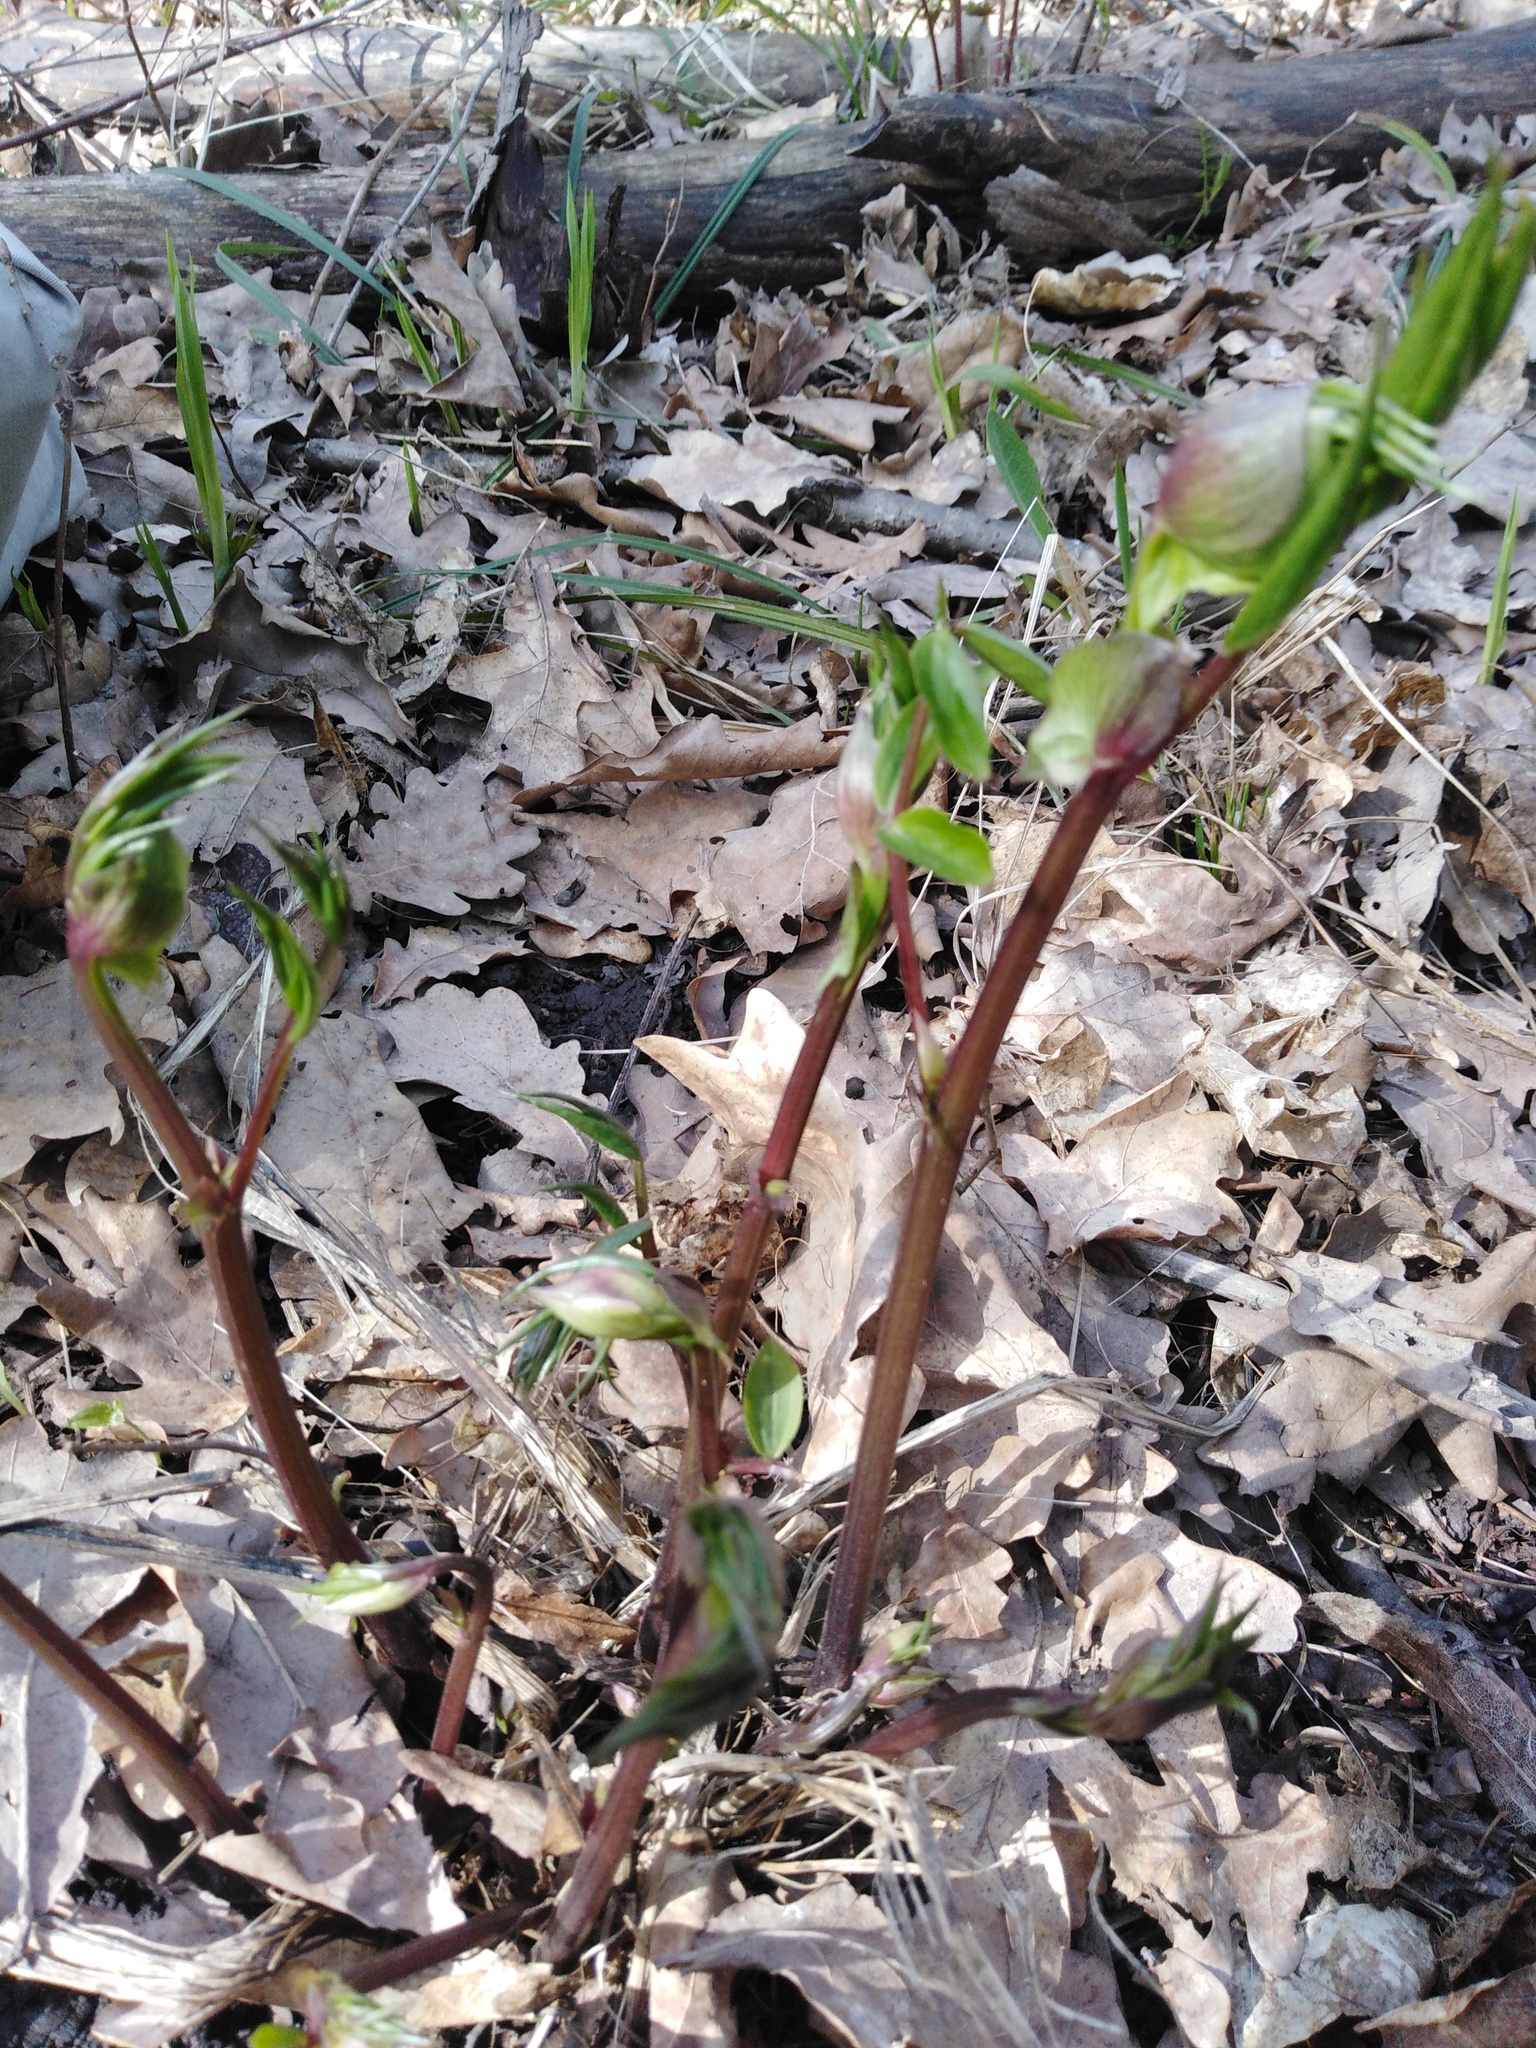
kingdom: Plantae
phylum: Tracheophyta
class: Magnoliopsida
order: Fabales
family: Fabaceae
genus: Lathyrus
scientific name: Lathyrus vernus
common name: Spring pea
